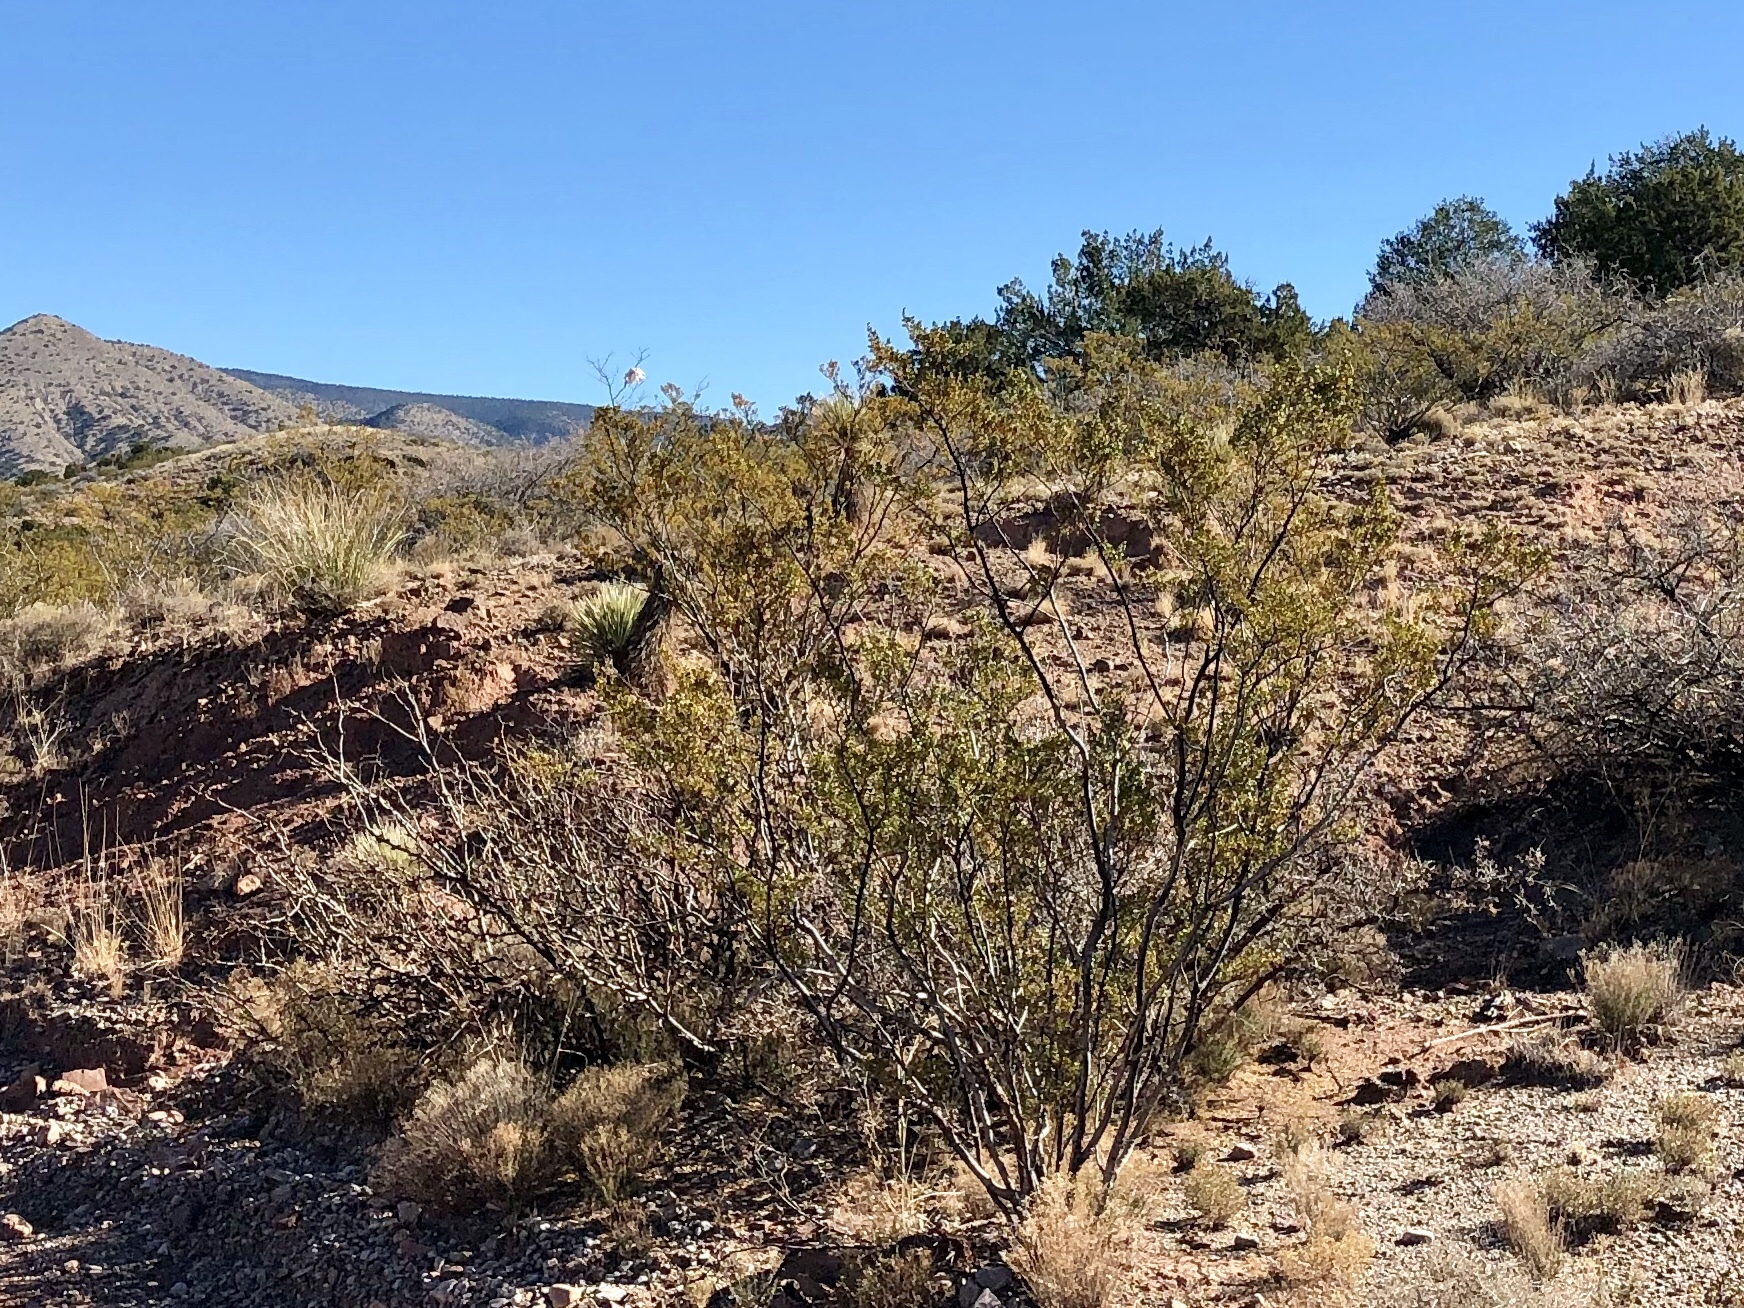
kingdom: Plantae
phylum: Tracheophyta
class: Magnoliopsida
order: Zygophyllales
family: Zygophyllaceae
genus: Larrea
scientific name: Larrea tridentata
